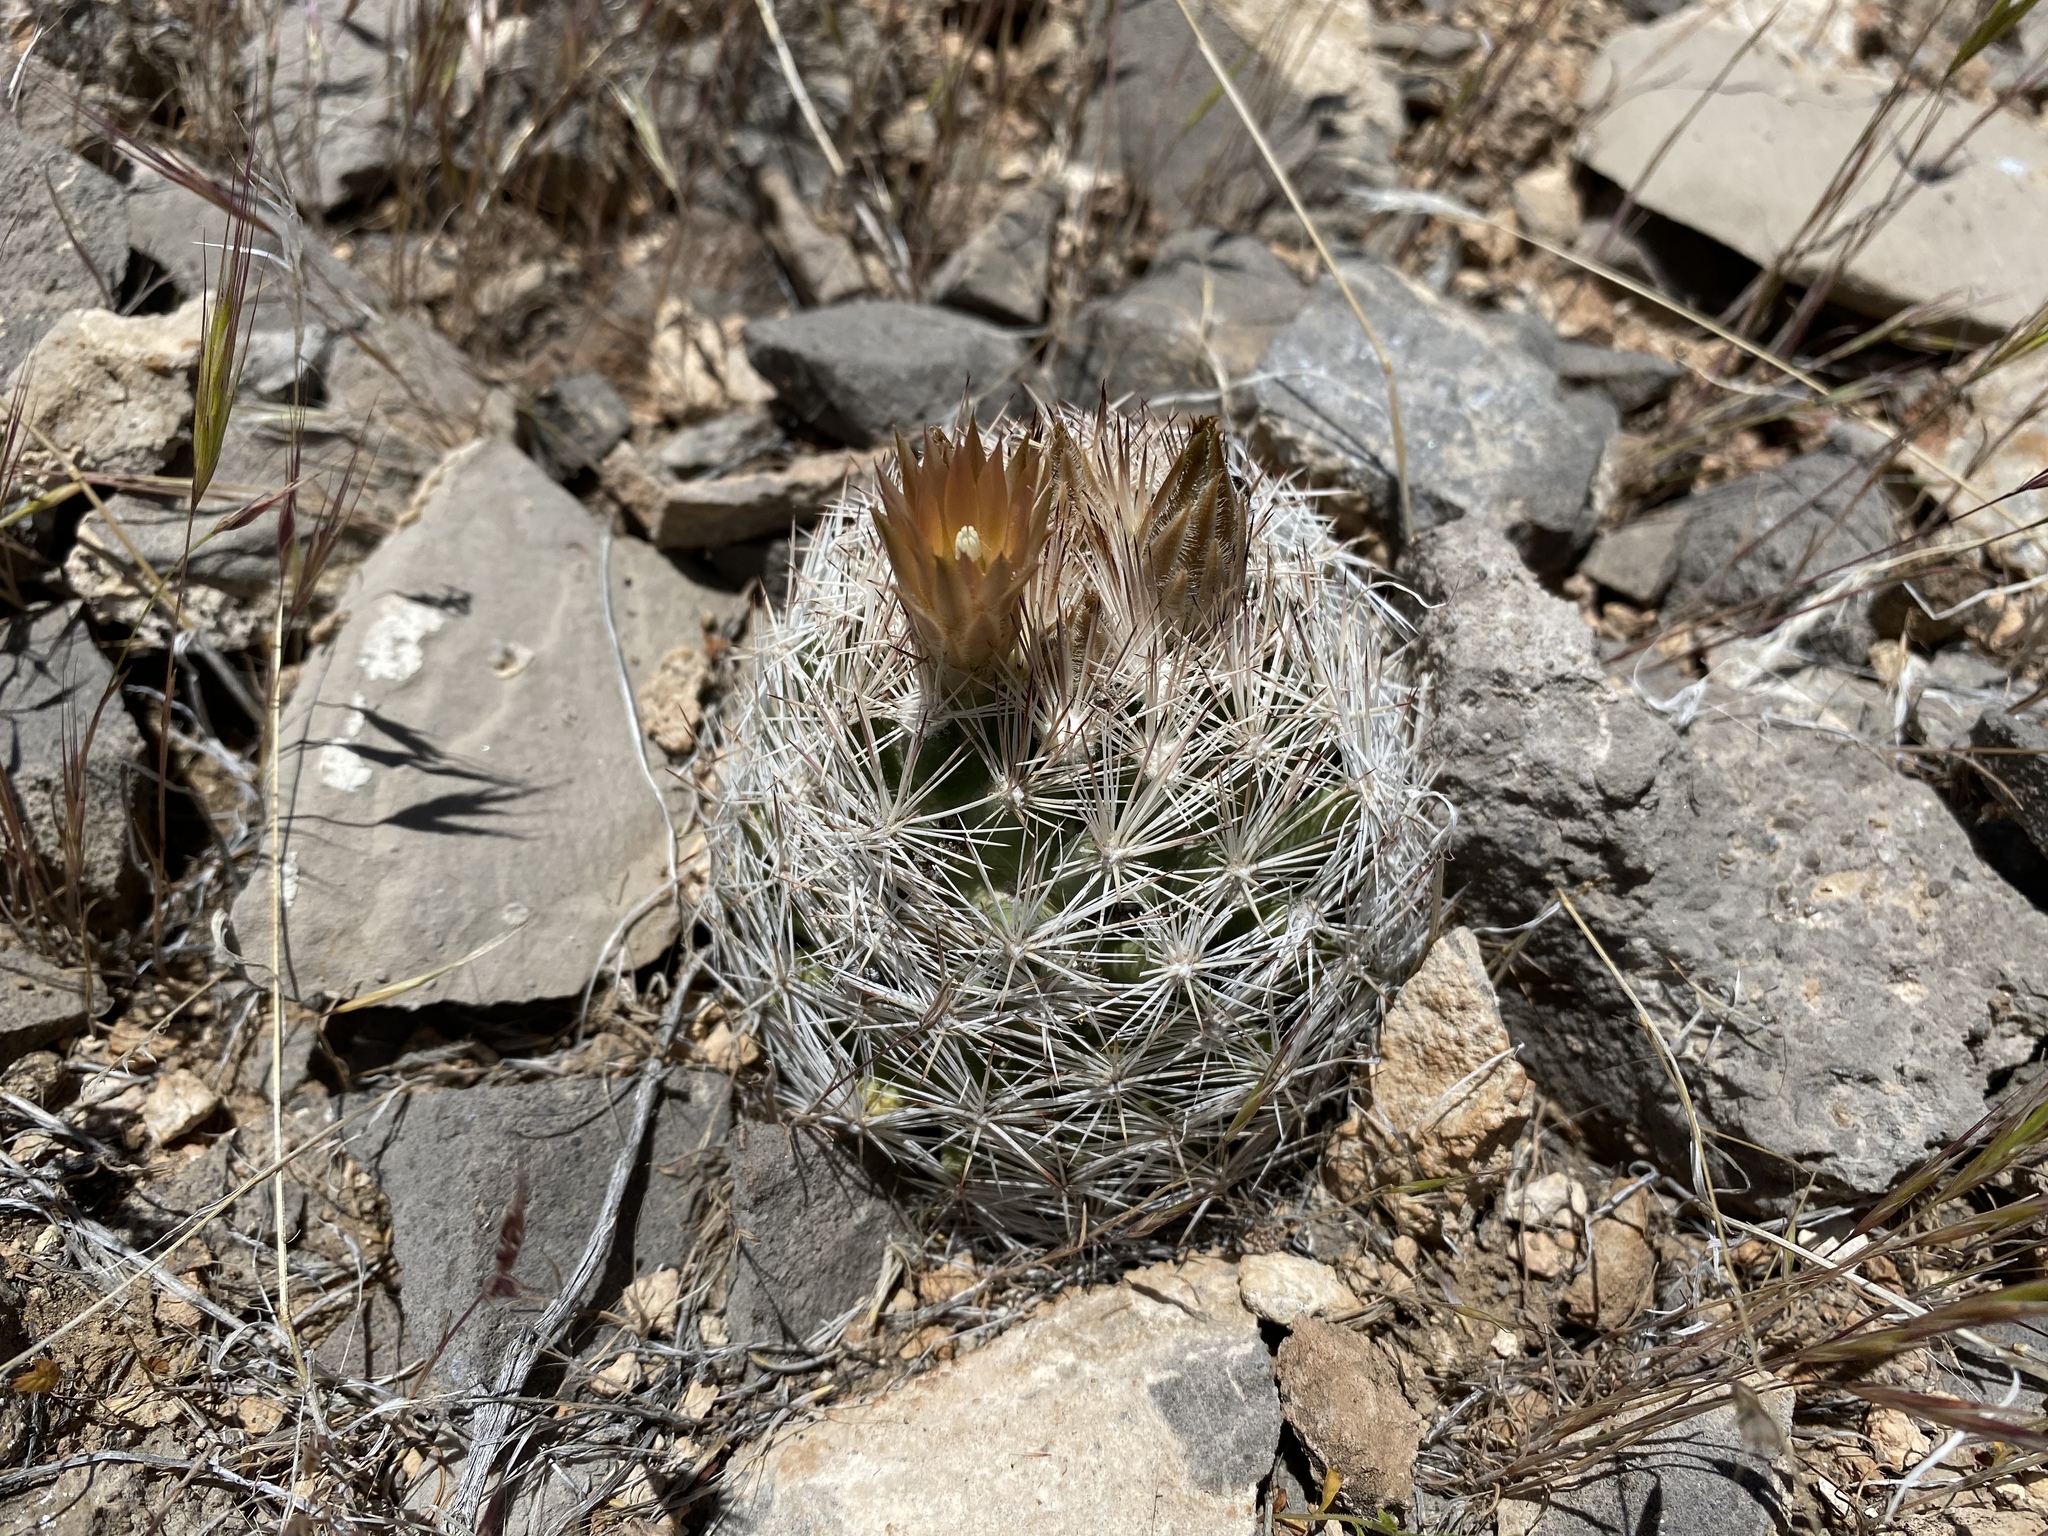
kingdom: Plantae
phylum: Tracheophyta
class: Magnoliopsida
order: Caryophyllales
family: Cactaceae
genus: Pelecyphora
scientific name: Pelecyphora dasyacantha
